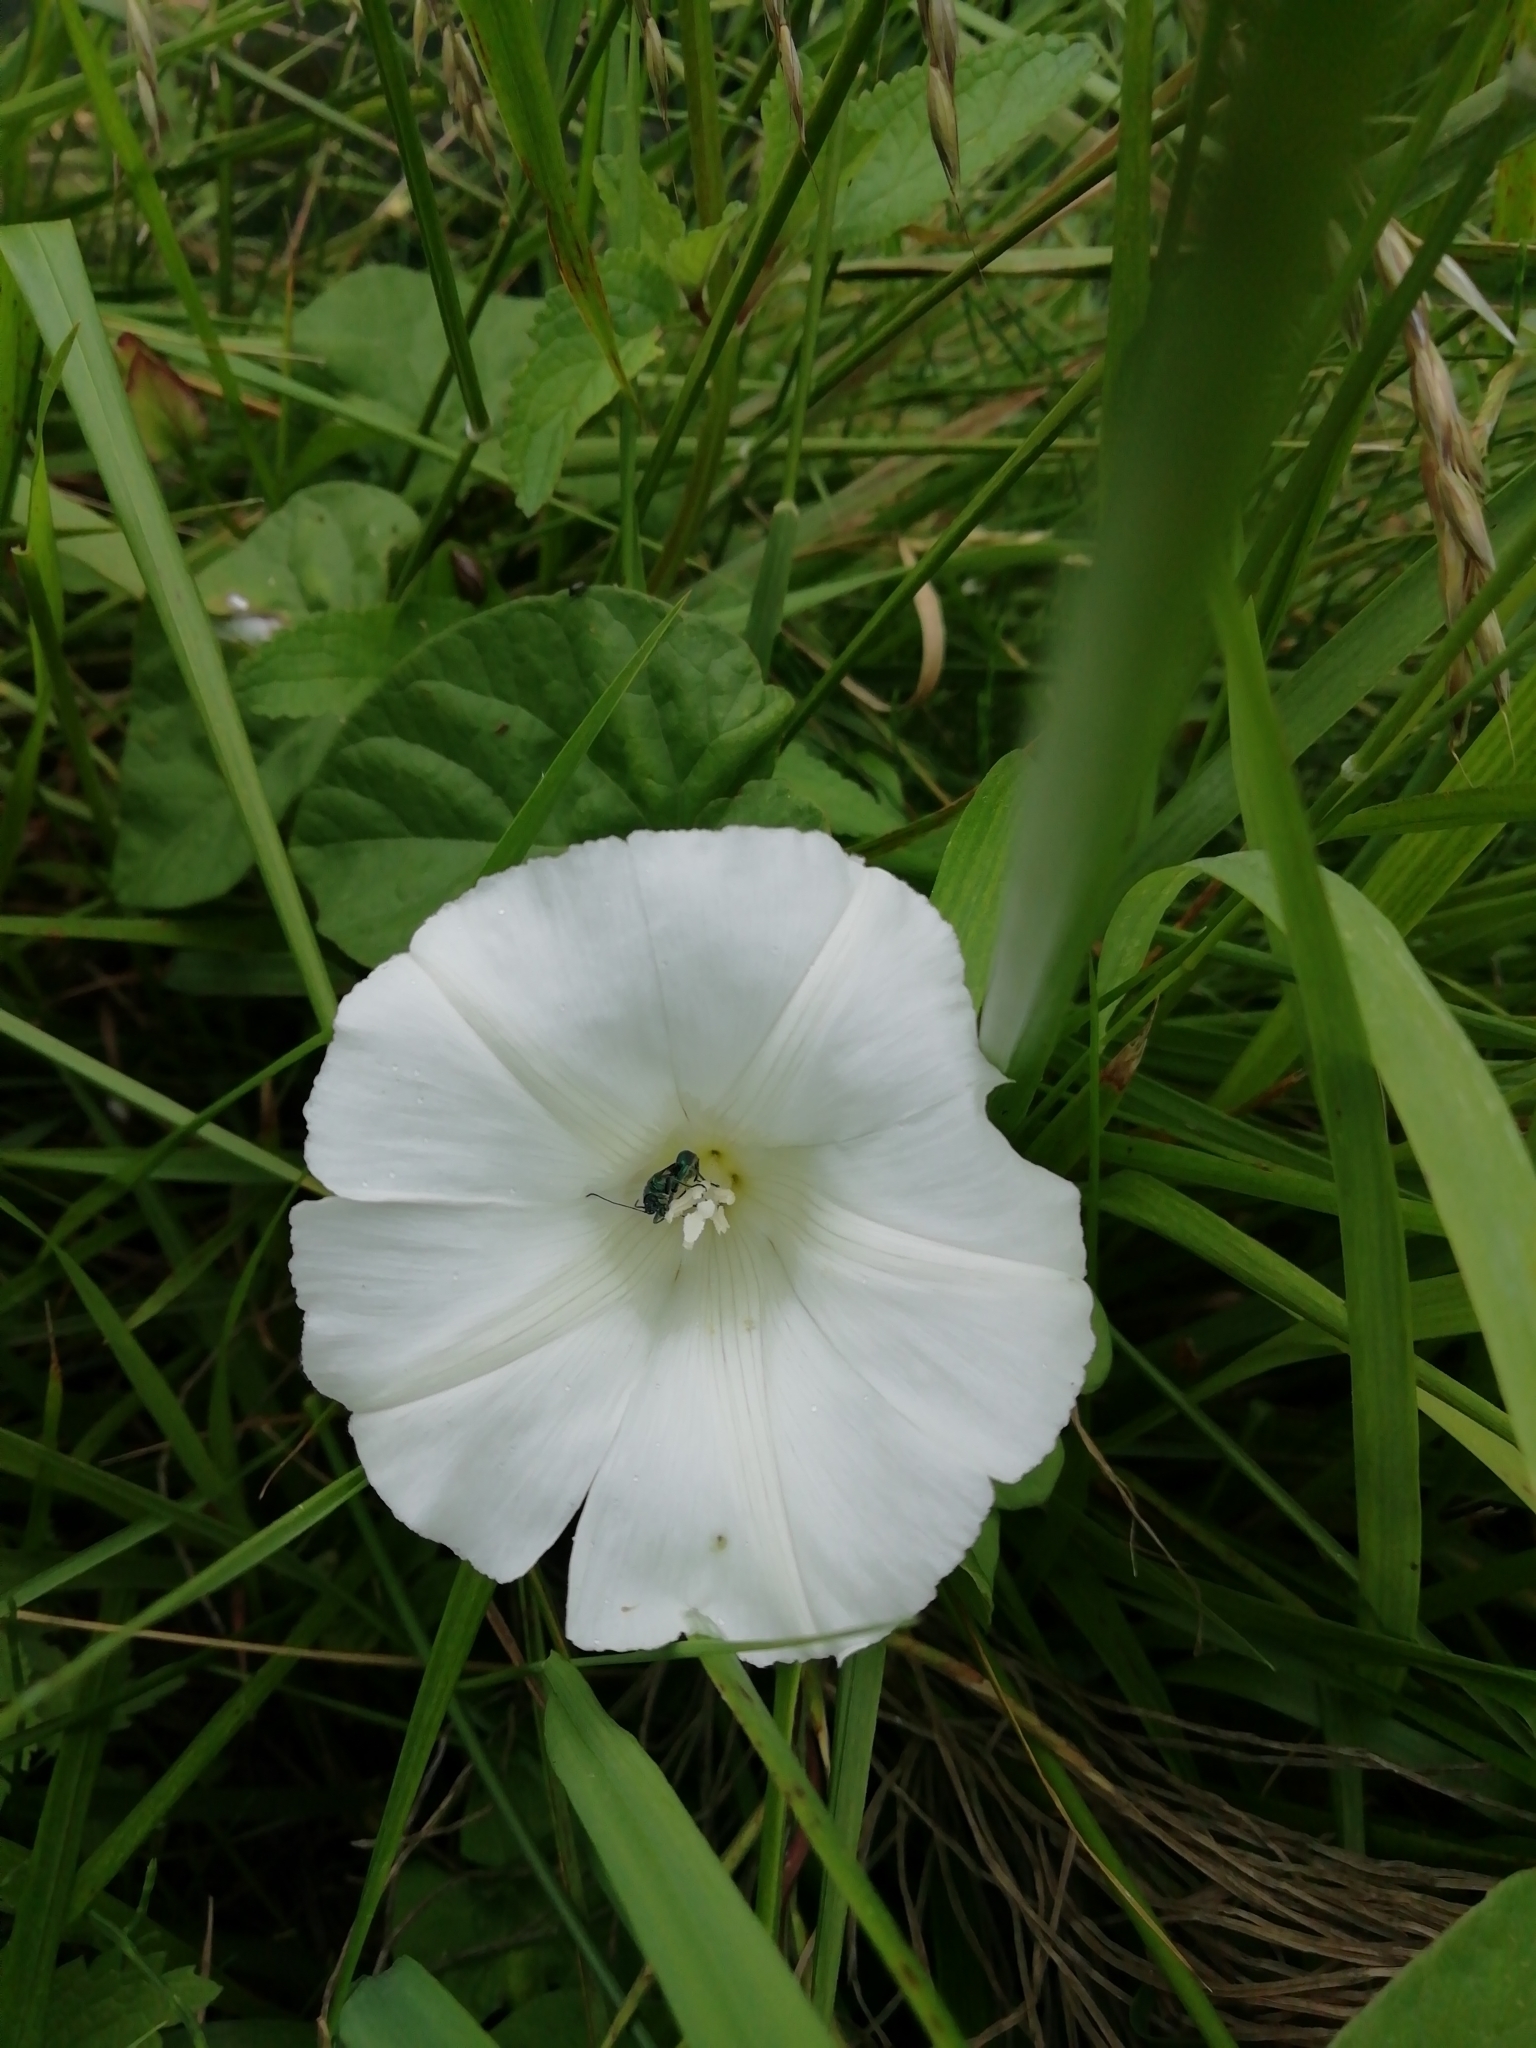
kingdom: Plantae
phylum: Tracheophyta
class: Magnoliopsida
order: Solanales
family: Convolvulaceae
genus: Calystegia
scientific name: Calystegia sepium
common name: Hedge bindweed
